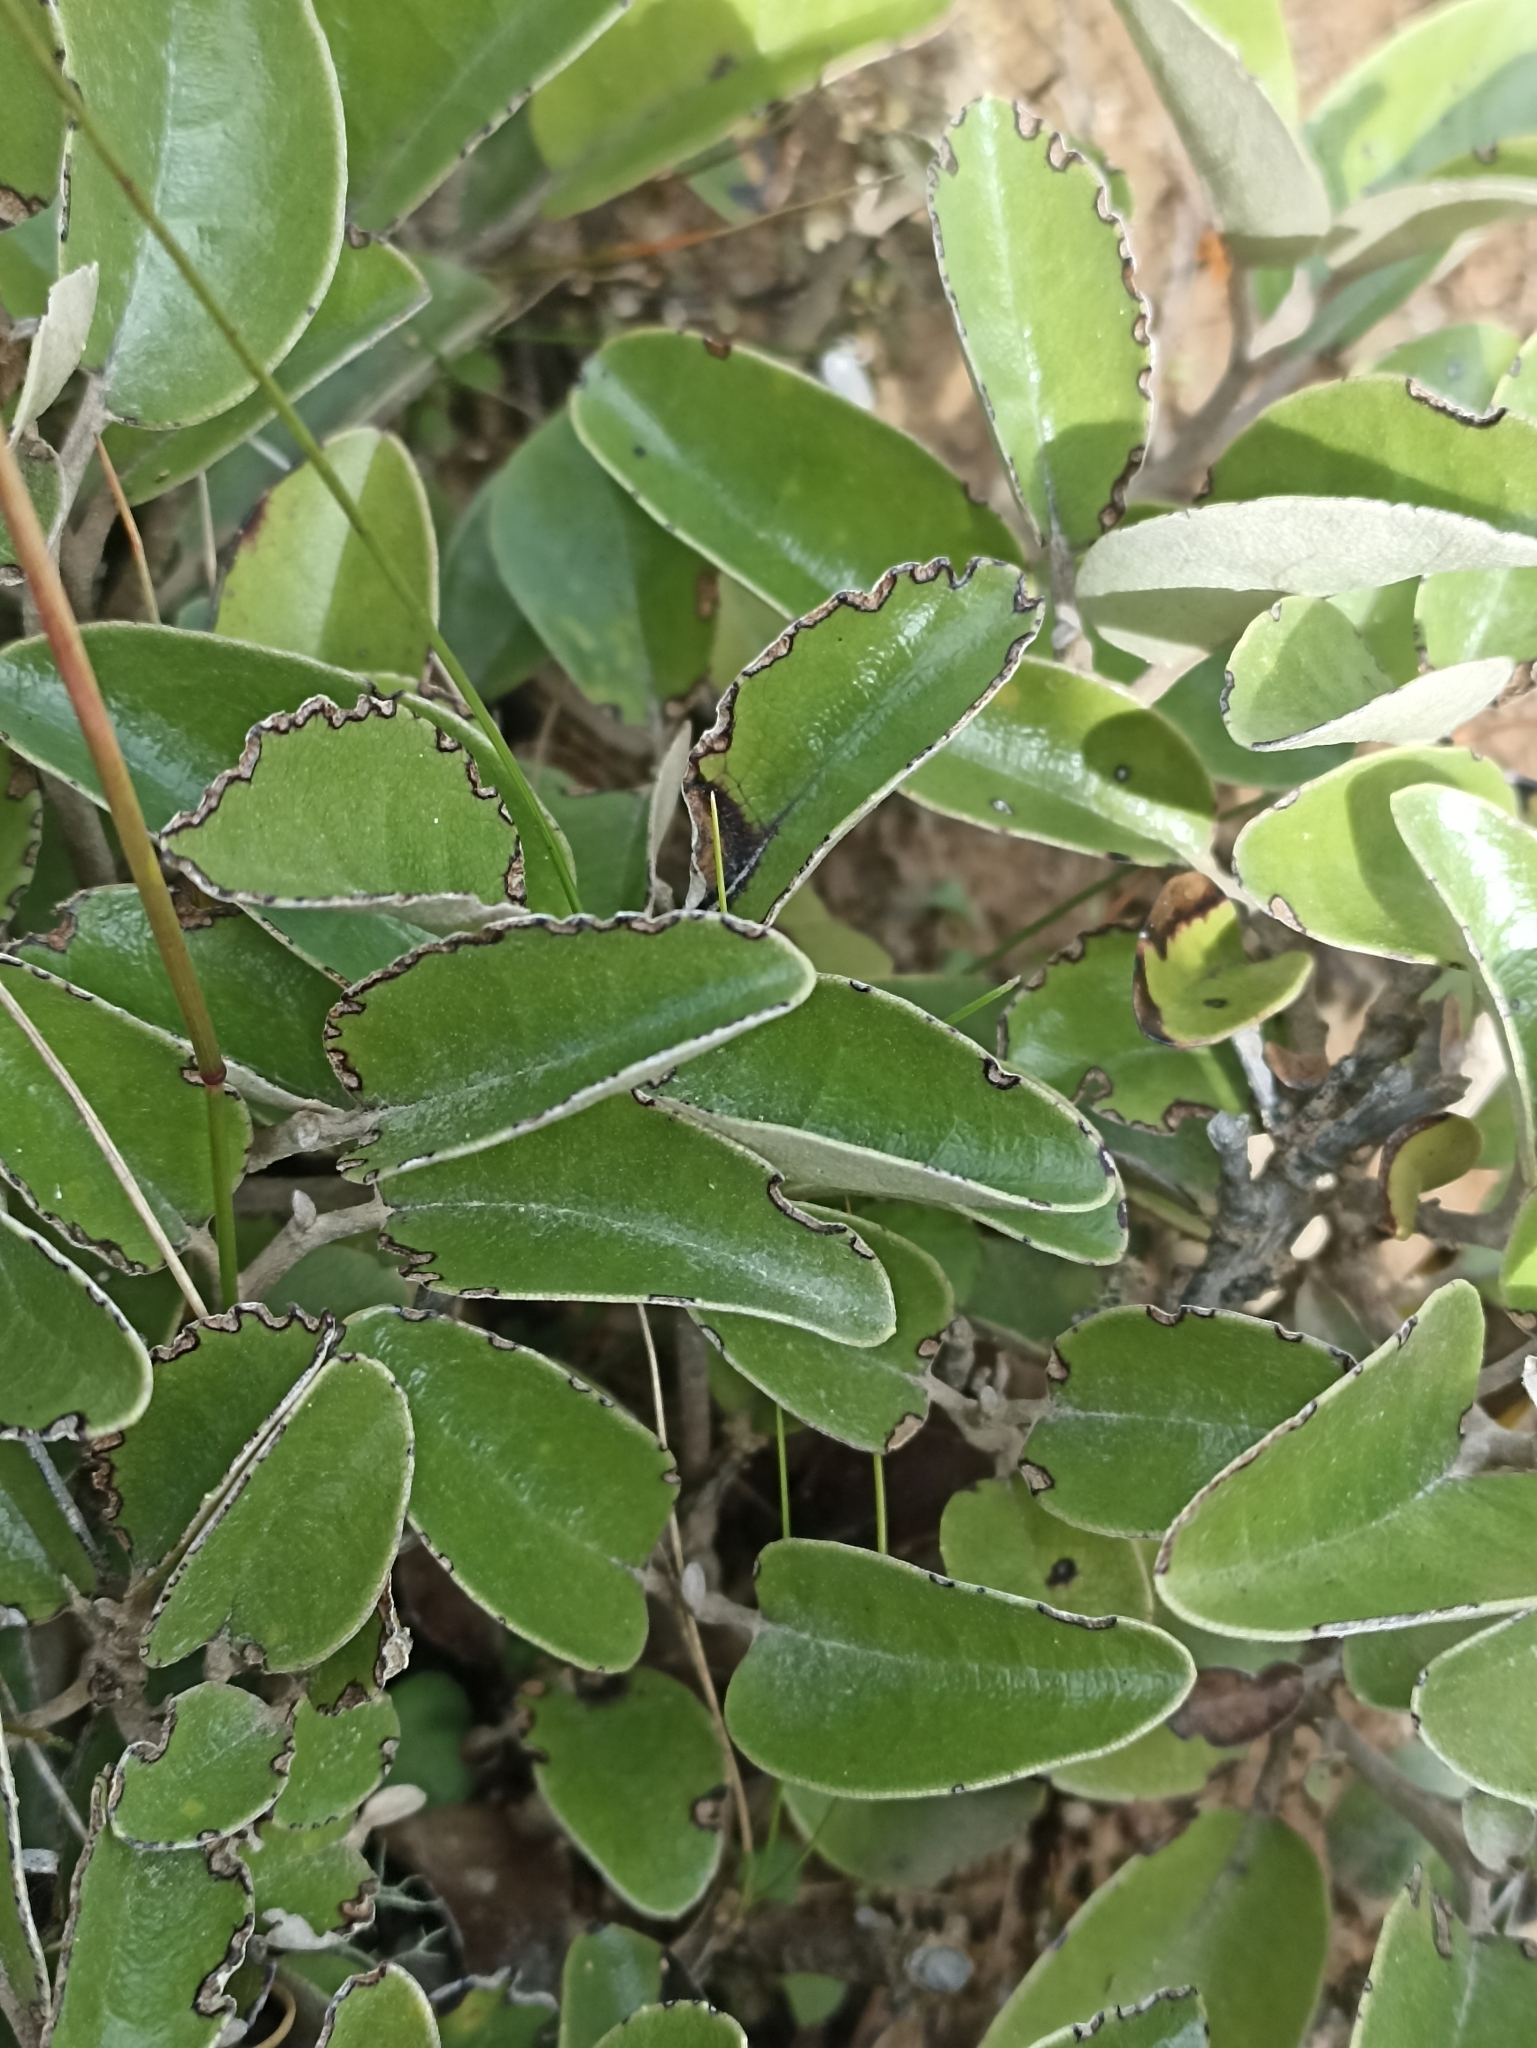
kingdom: Plantae
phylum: Tracheophyta
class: Magnoliopsida
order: Asterales
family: Asteraceae
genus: Brachyglottis
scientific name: Brachyglottis elaeagnifolia
